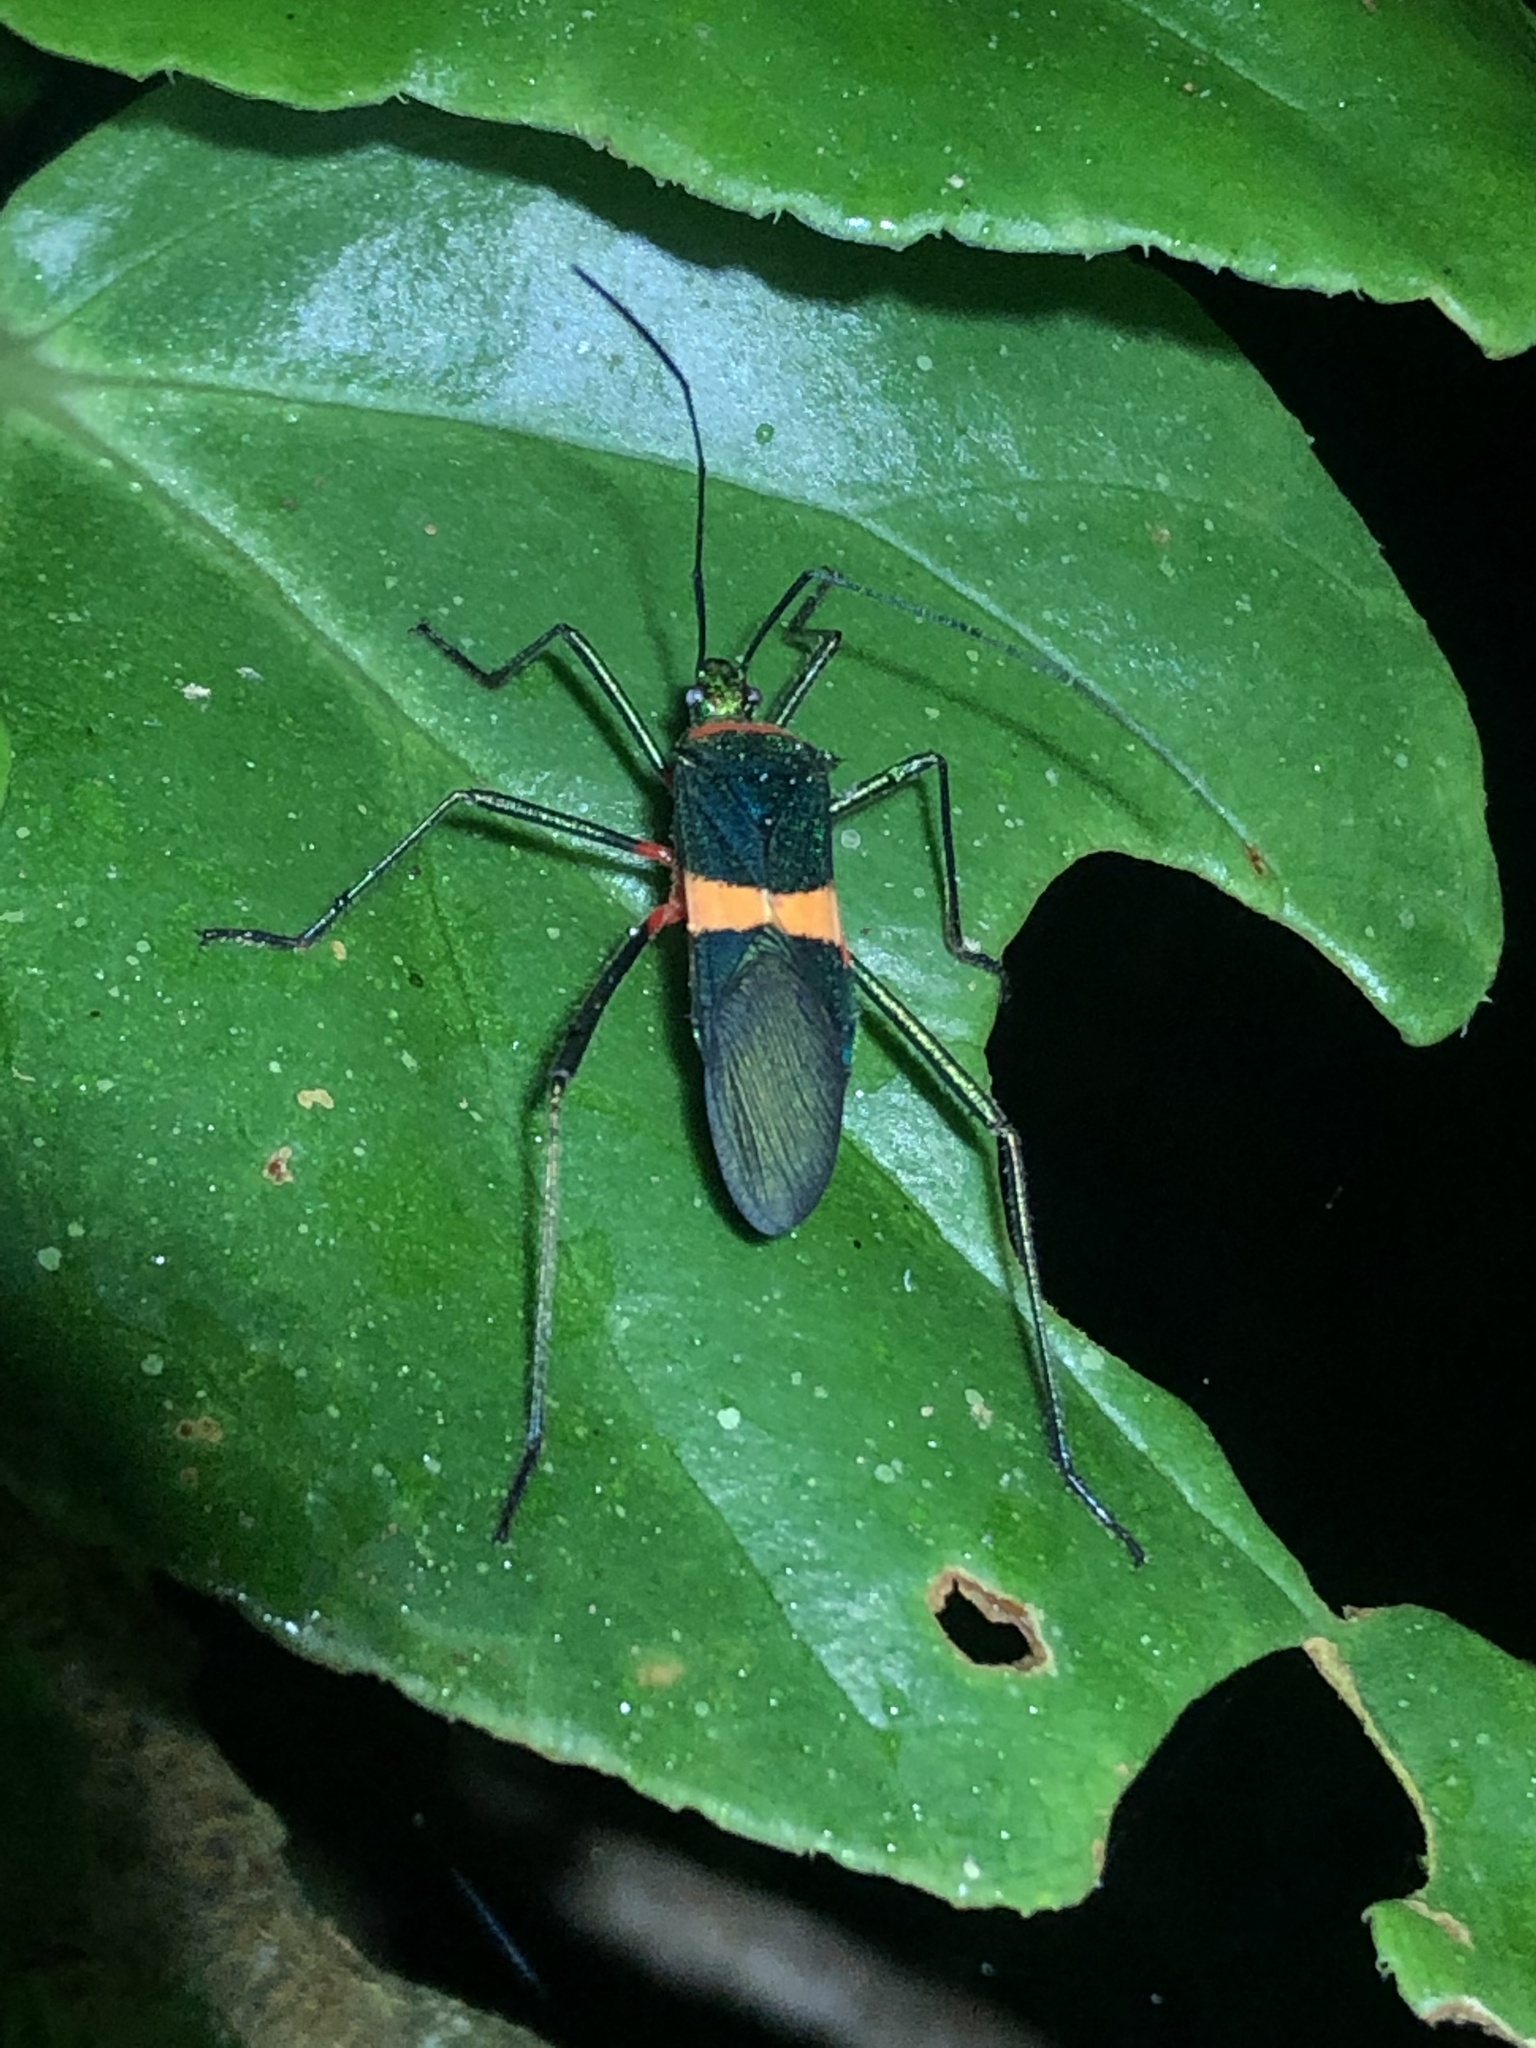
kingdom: Animalia
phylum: Arthropoda
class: Insecta
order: Hemiptera
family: Coreidae
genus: Phthiarella
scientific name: Phthiarella decorata
